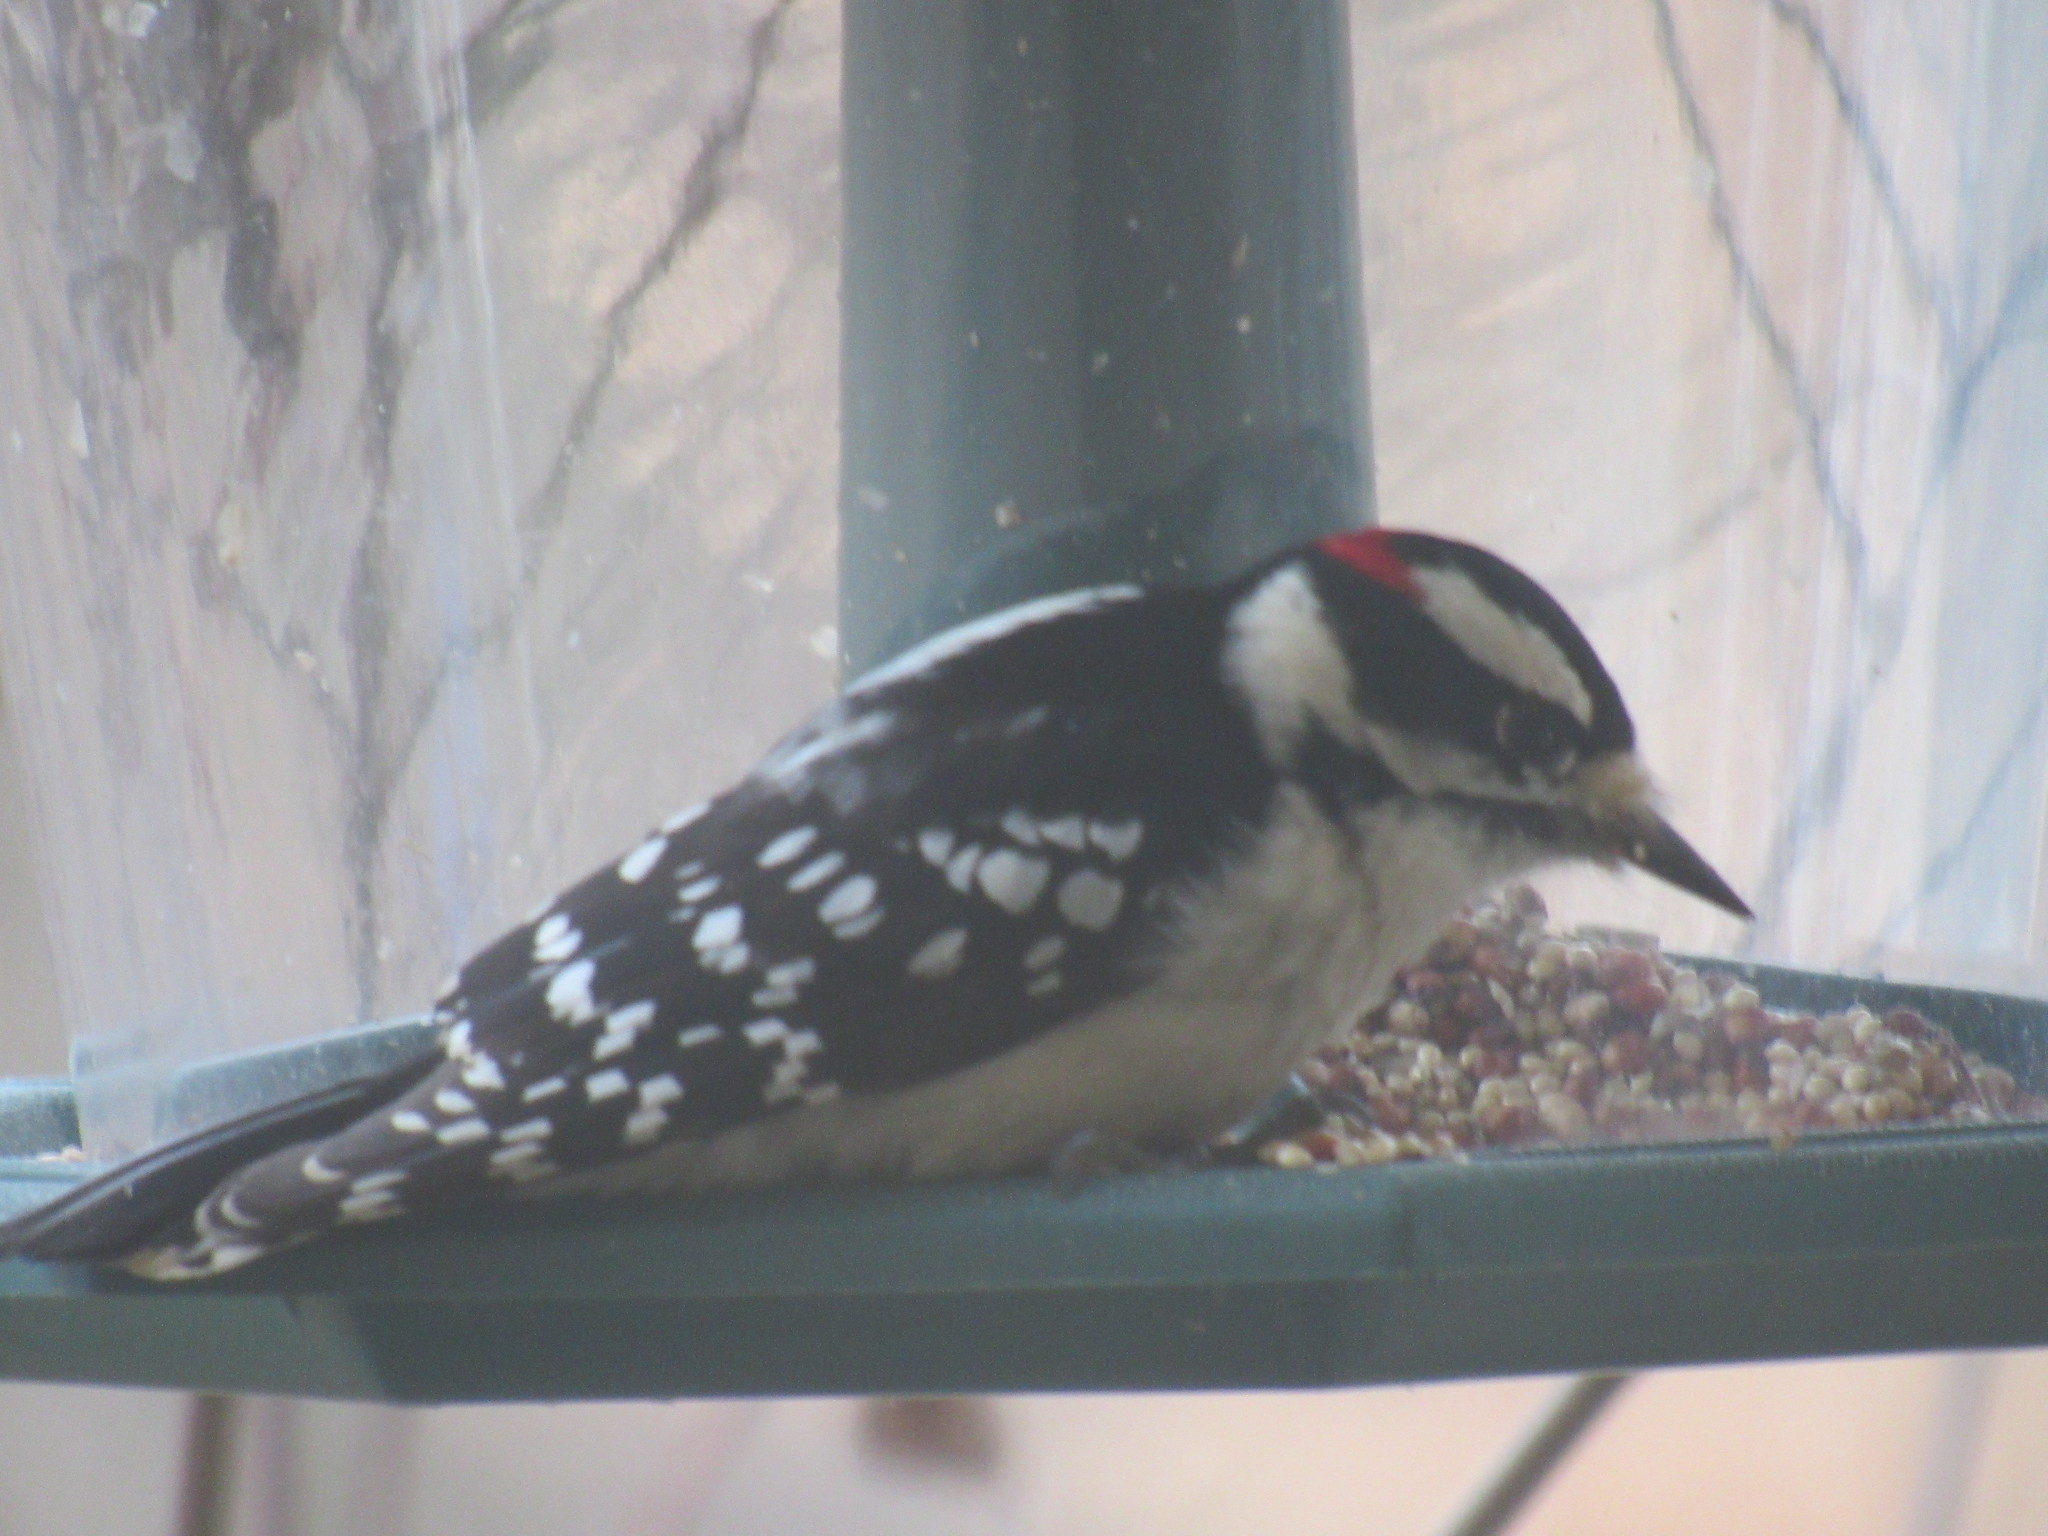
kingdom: Animalia
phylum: Chordata
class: Aves
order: Piciformes
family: Picidae
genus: Dryobates
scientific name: Dryobates pubescens
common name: Downy woodpecker
